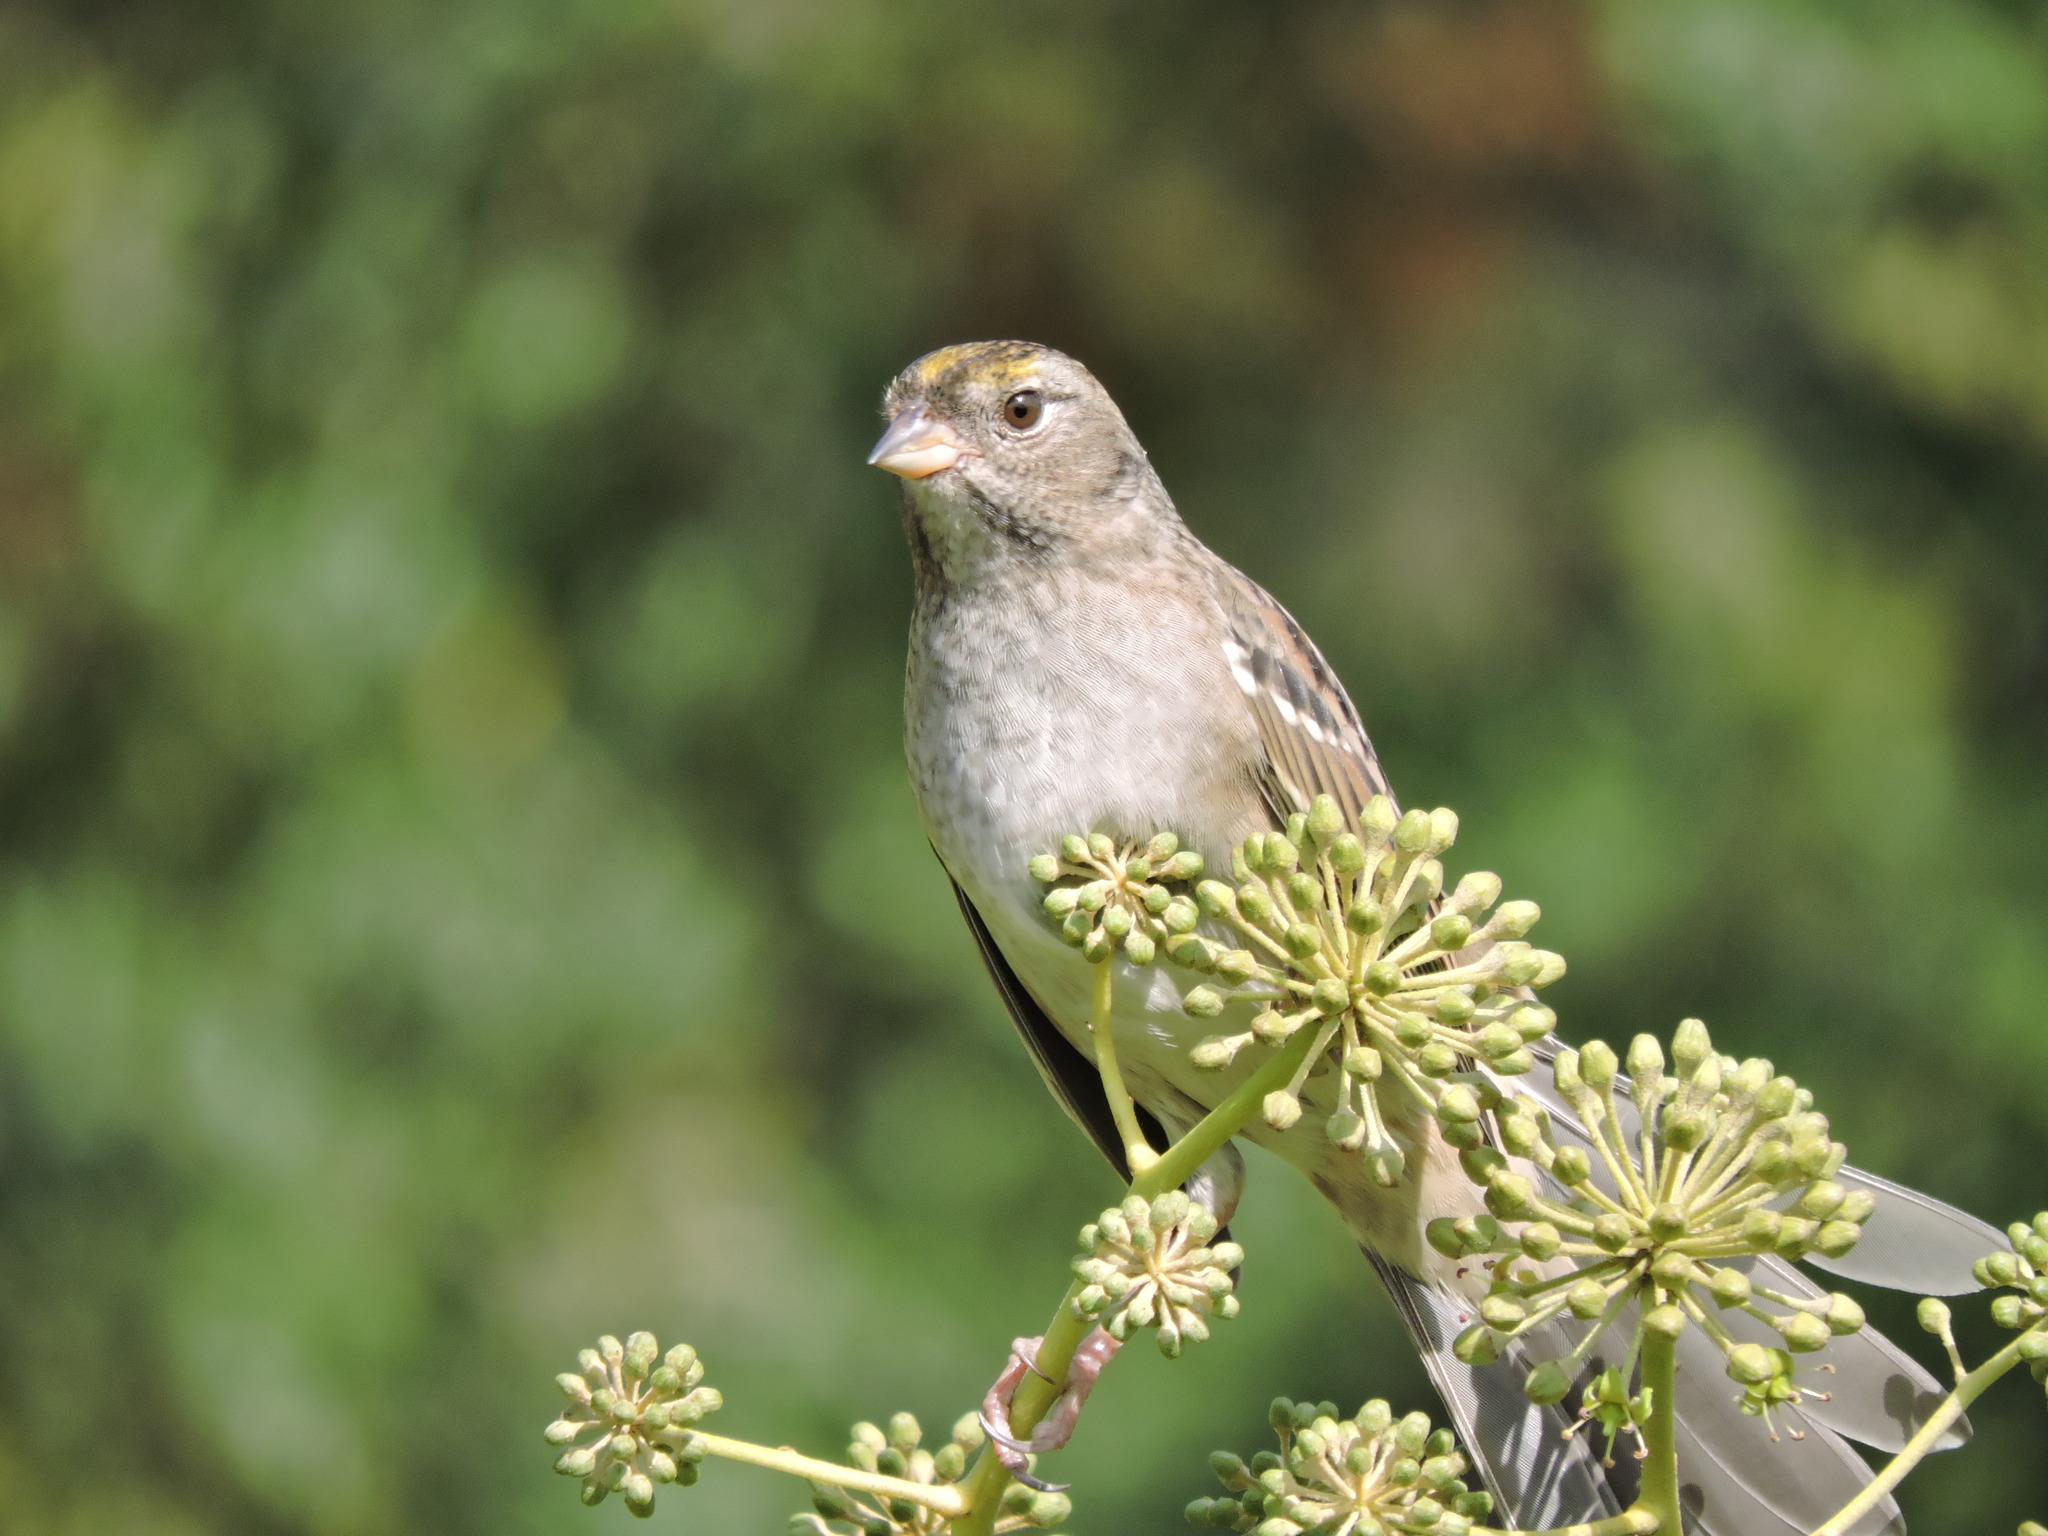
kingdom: Animalia
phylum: Chordata
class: Aves
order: Passeriformes
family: Passerellidae
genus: Zonotrichia
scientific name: Zonotrichia atricapilla
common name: Golden-crowned sparrow
